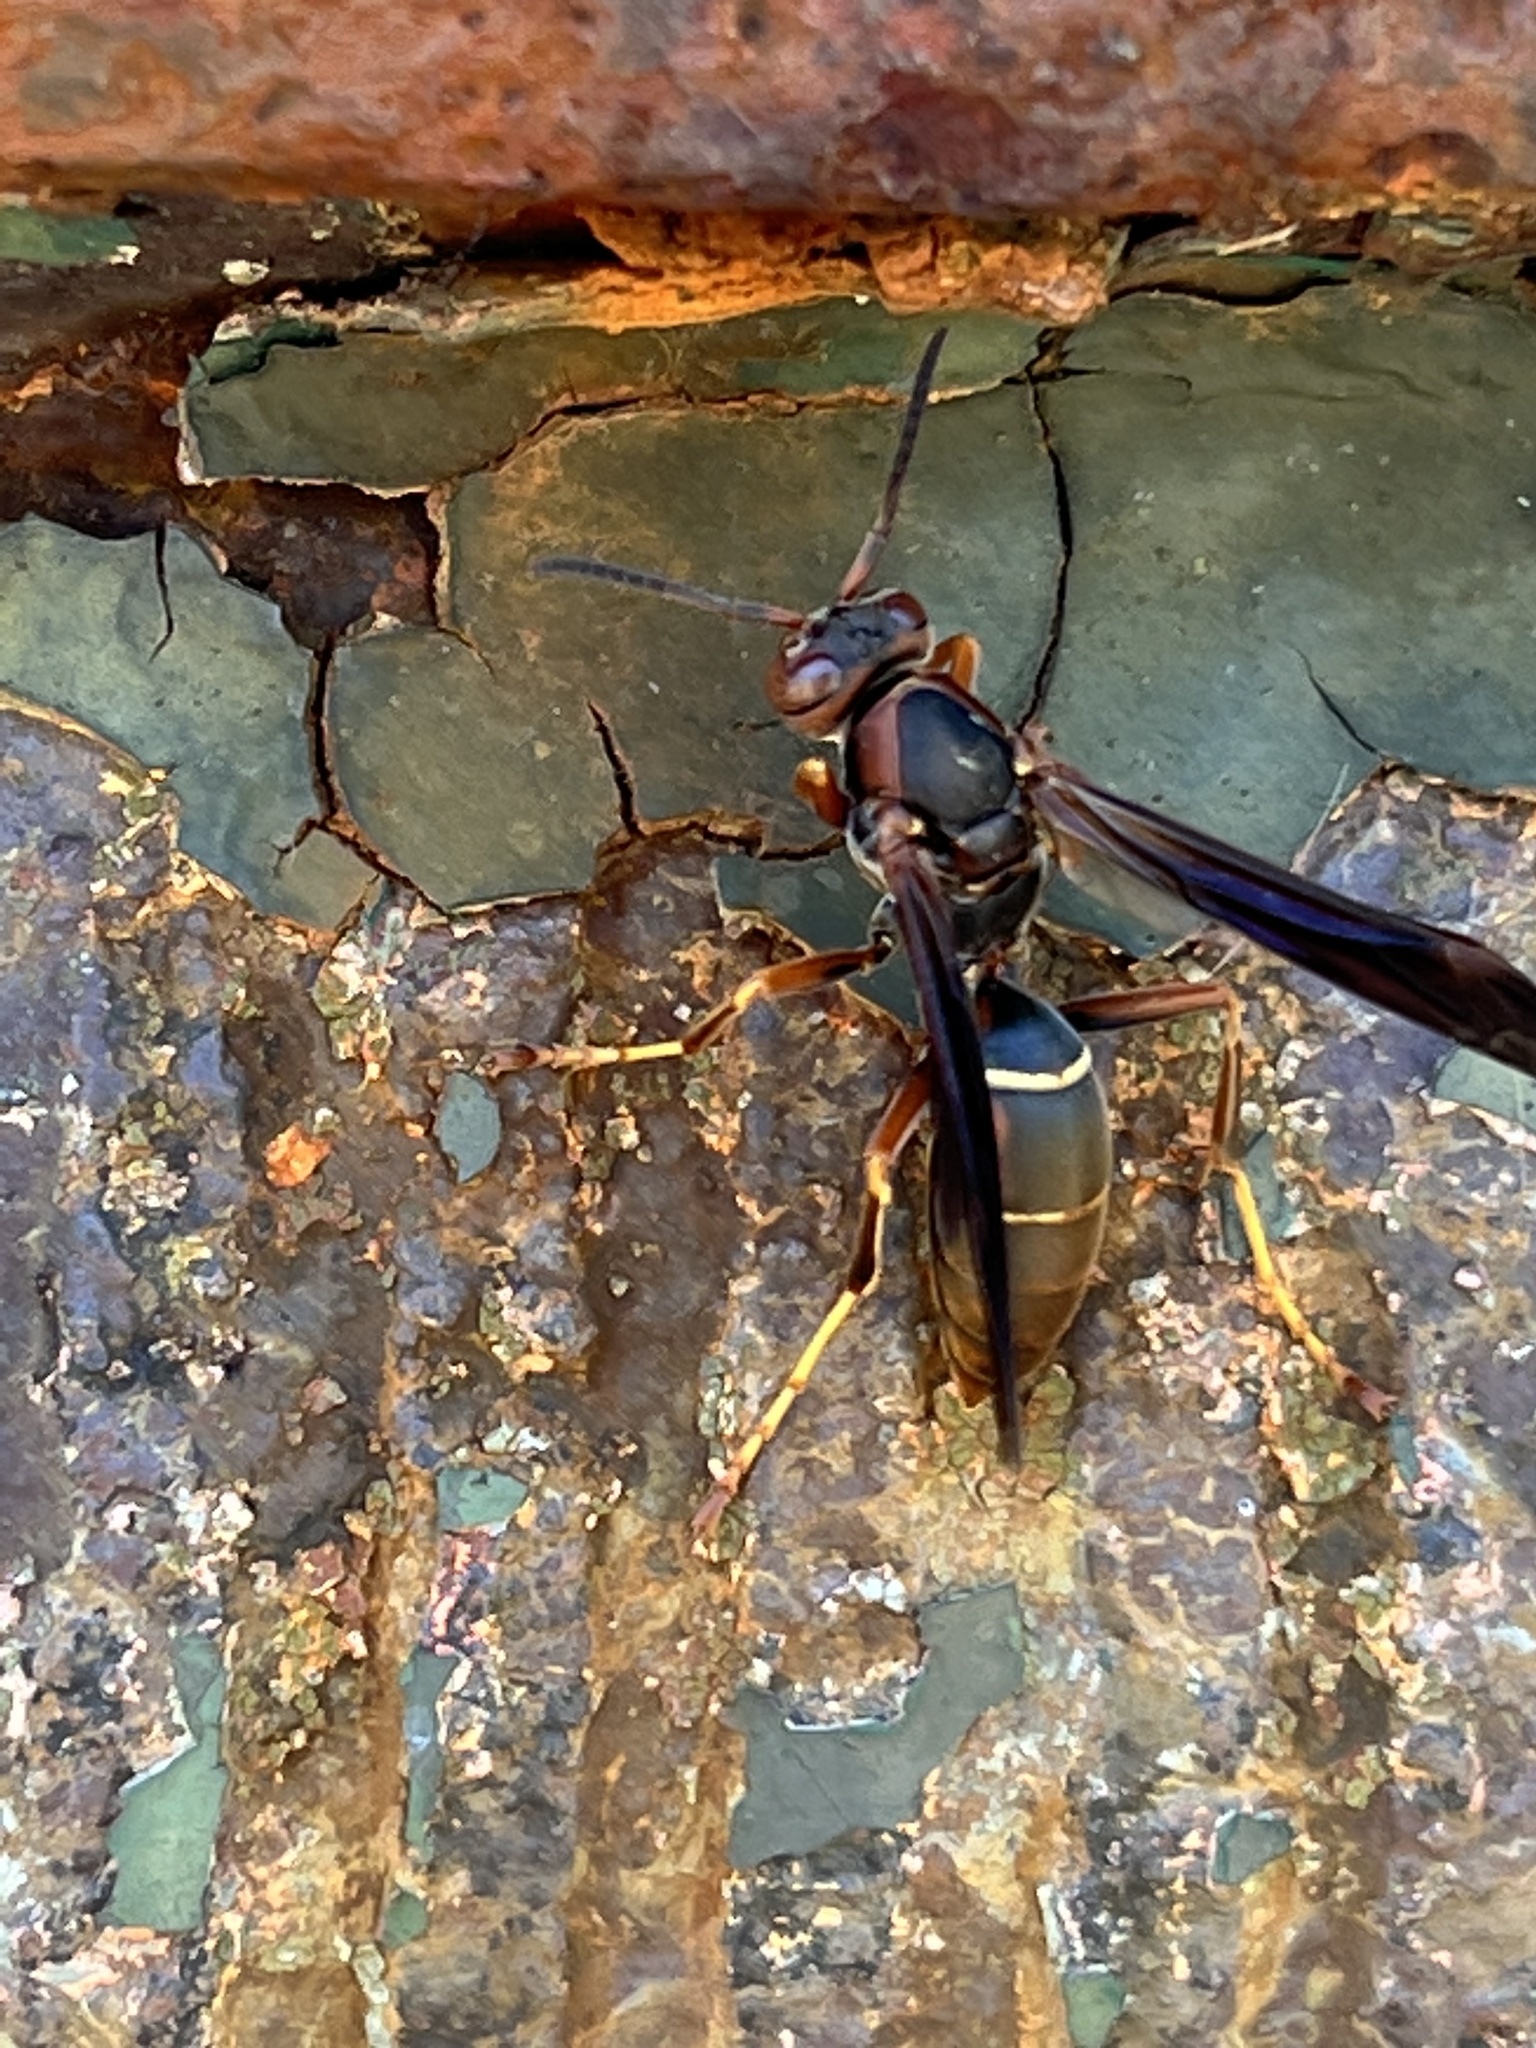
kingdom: Animalia
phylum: Arthropoda
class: Insecta
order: Hymenoptera
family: Eumenidae
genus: Polistes
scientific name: Polistes fuscatus
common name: Dark paper wasp
